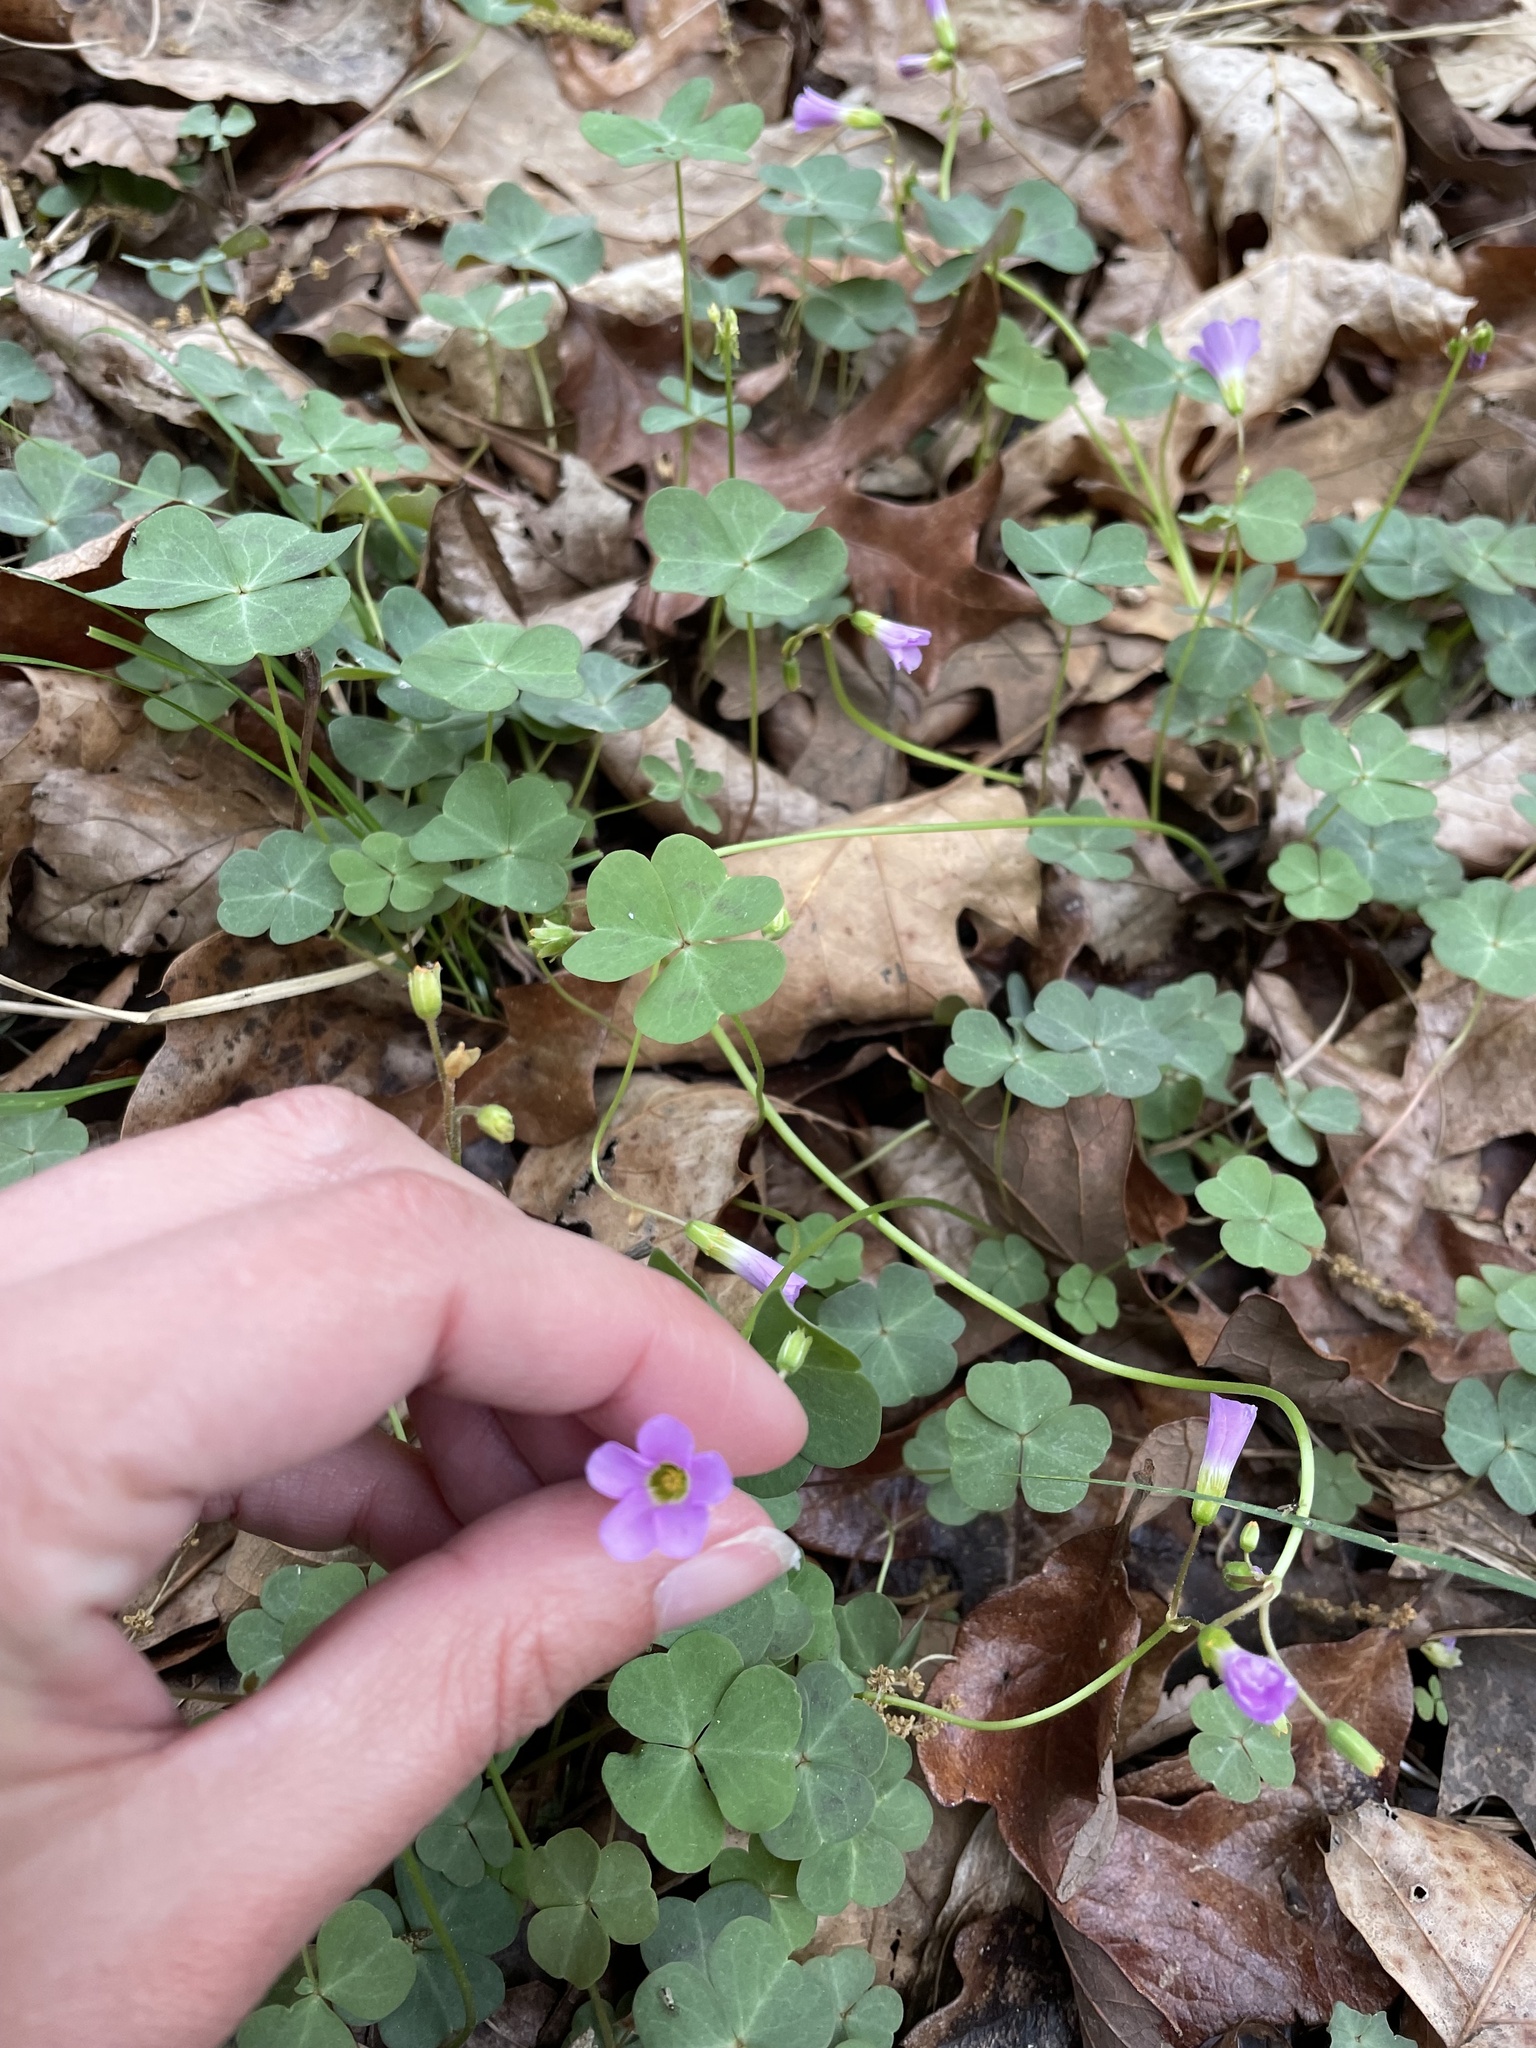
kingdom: Plantae
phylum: Tracheophyta
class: Magnoliopsida
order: Oxalidales
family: Oxalidaceae
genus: Oxalis
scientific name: Oxalis violacea
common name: Violet wood-sorrel
